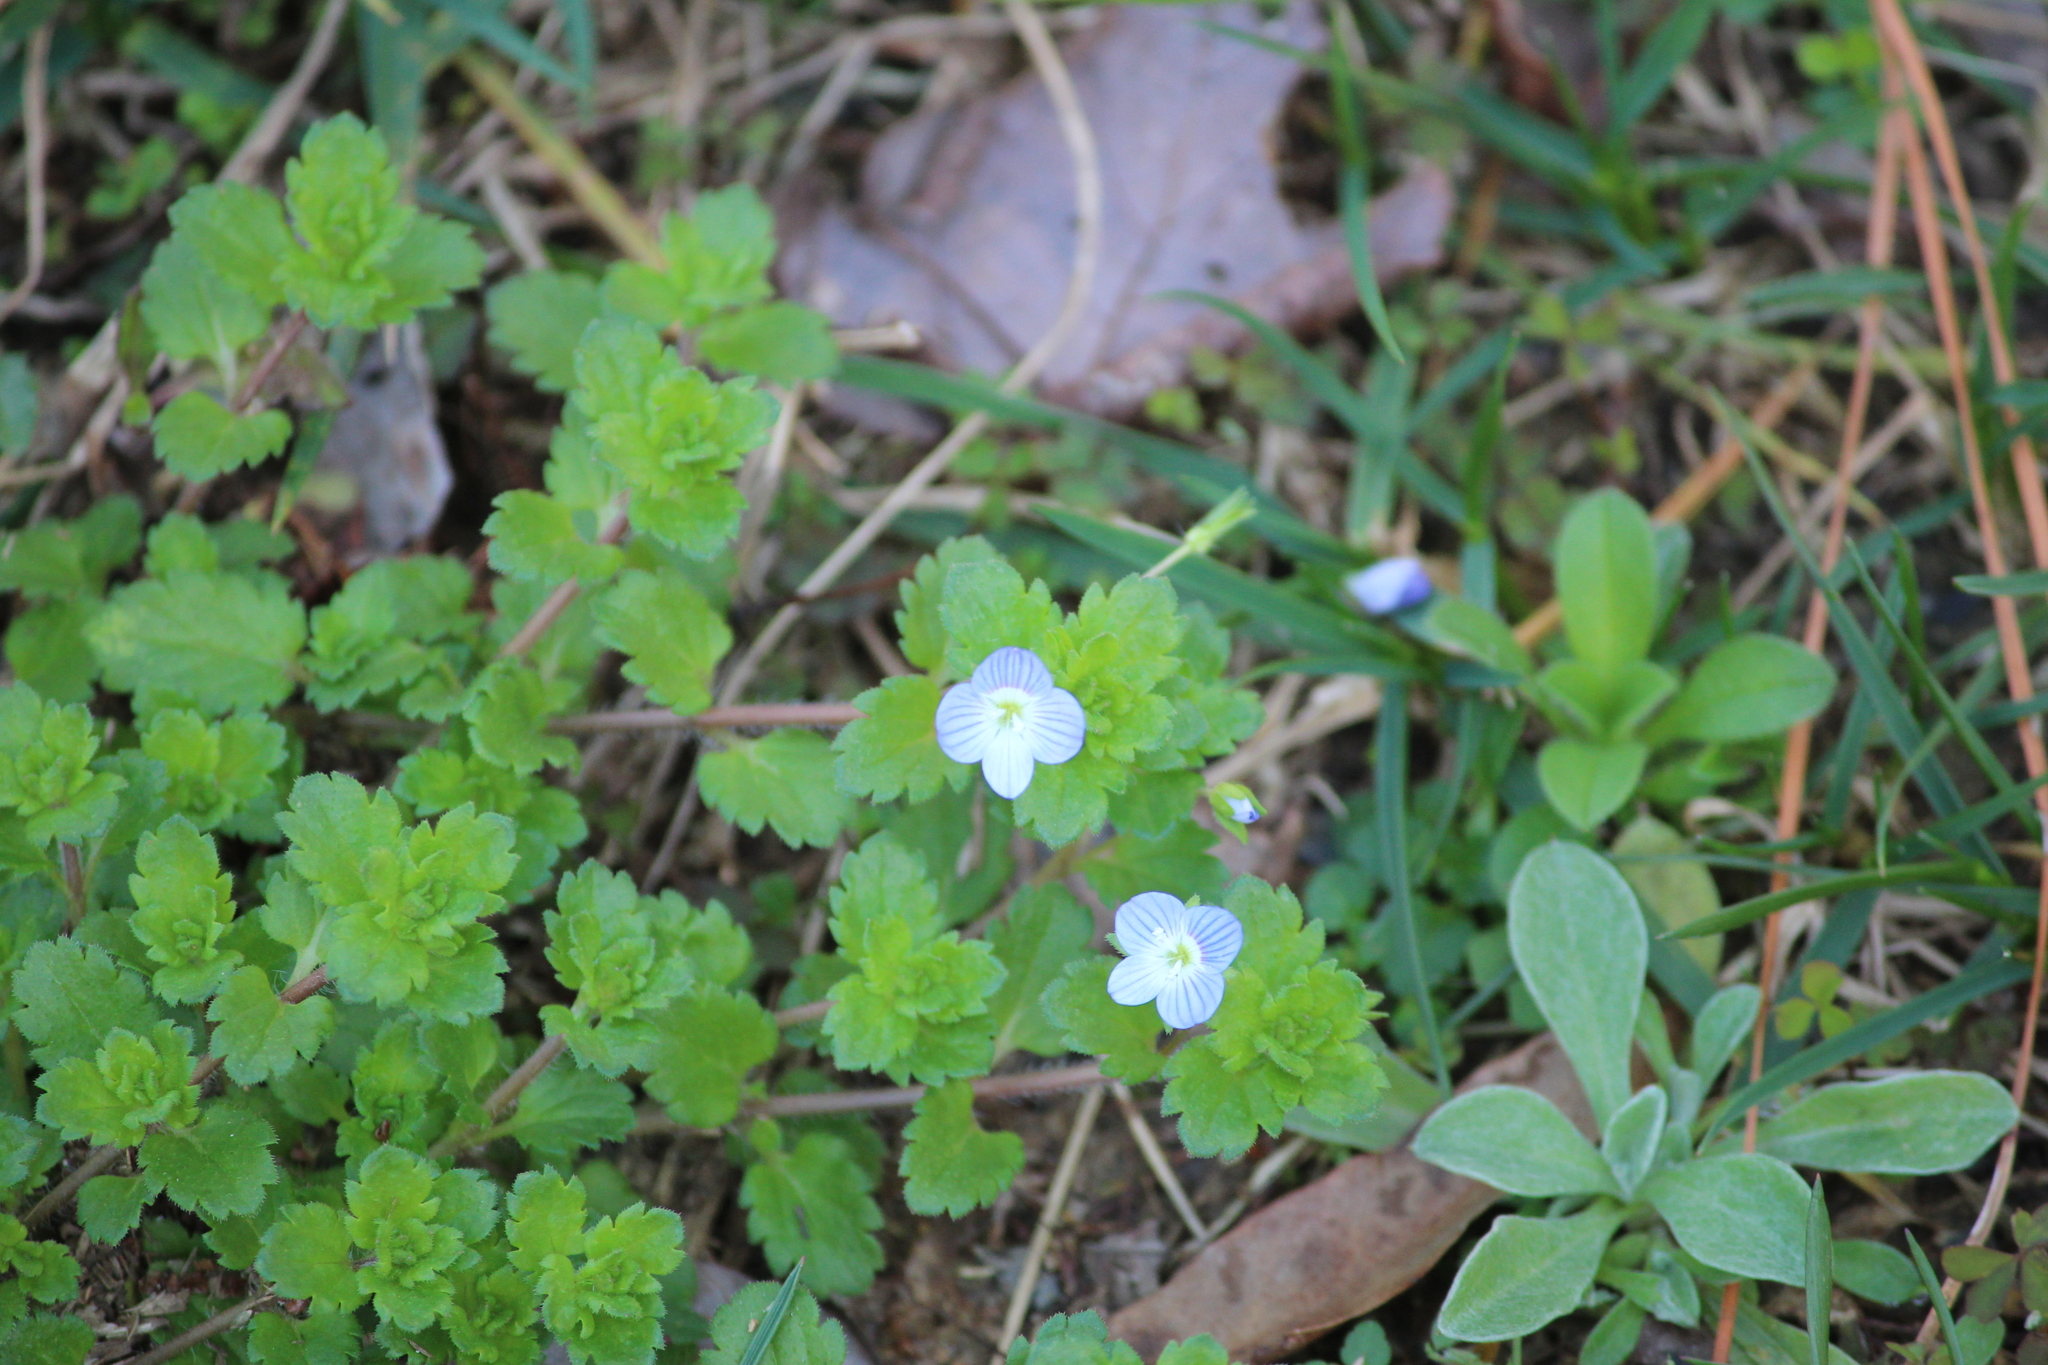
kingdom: Plantae
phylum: Tracheophyta
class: Magnoliopsida
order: Lamiales
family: Plantaginaceae
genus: Veronica
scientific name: Veronica persica
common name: Common field-speedwell
